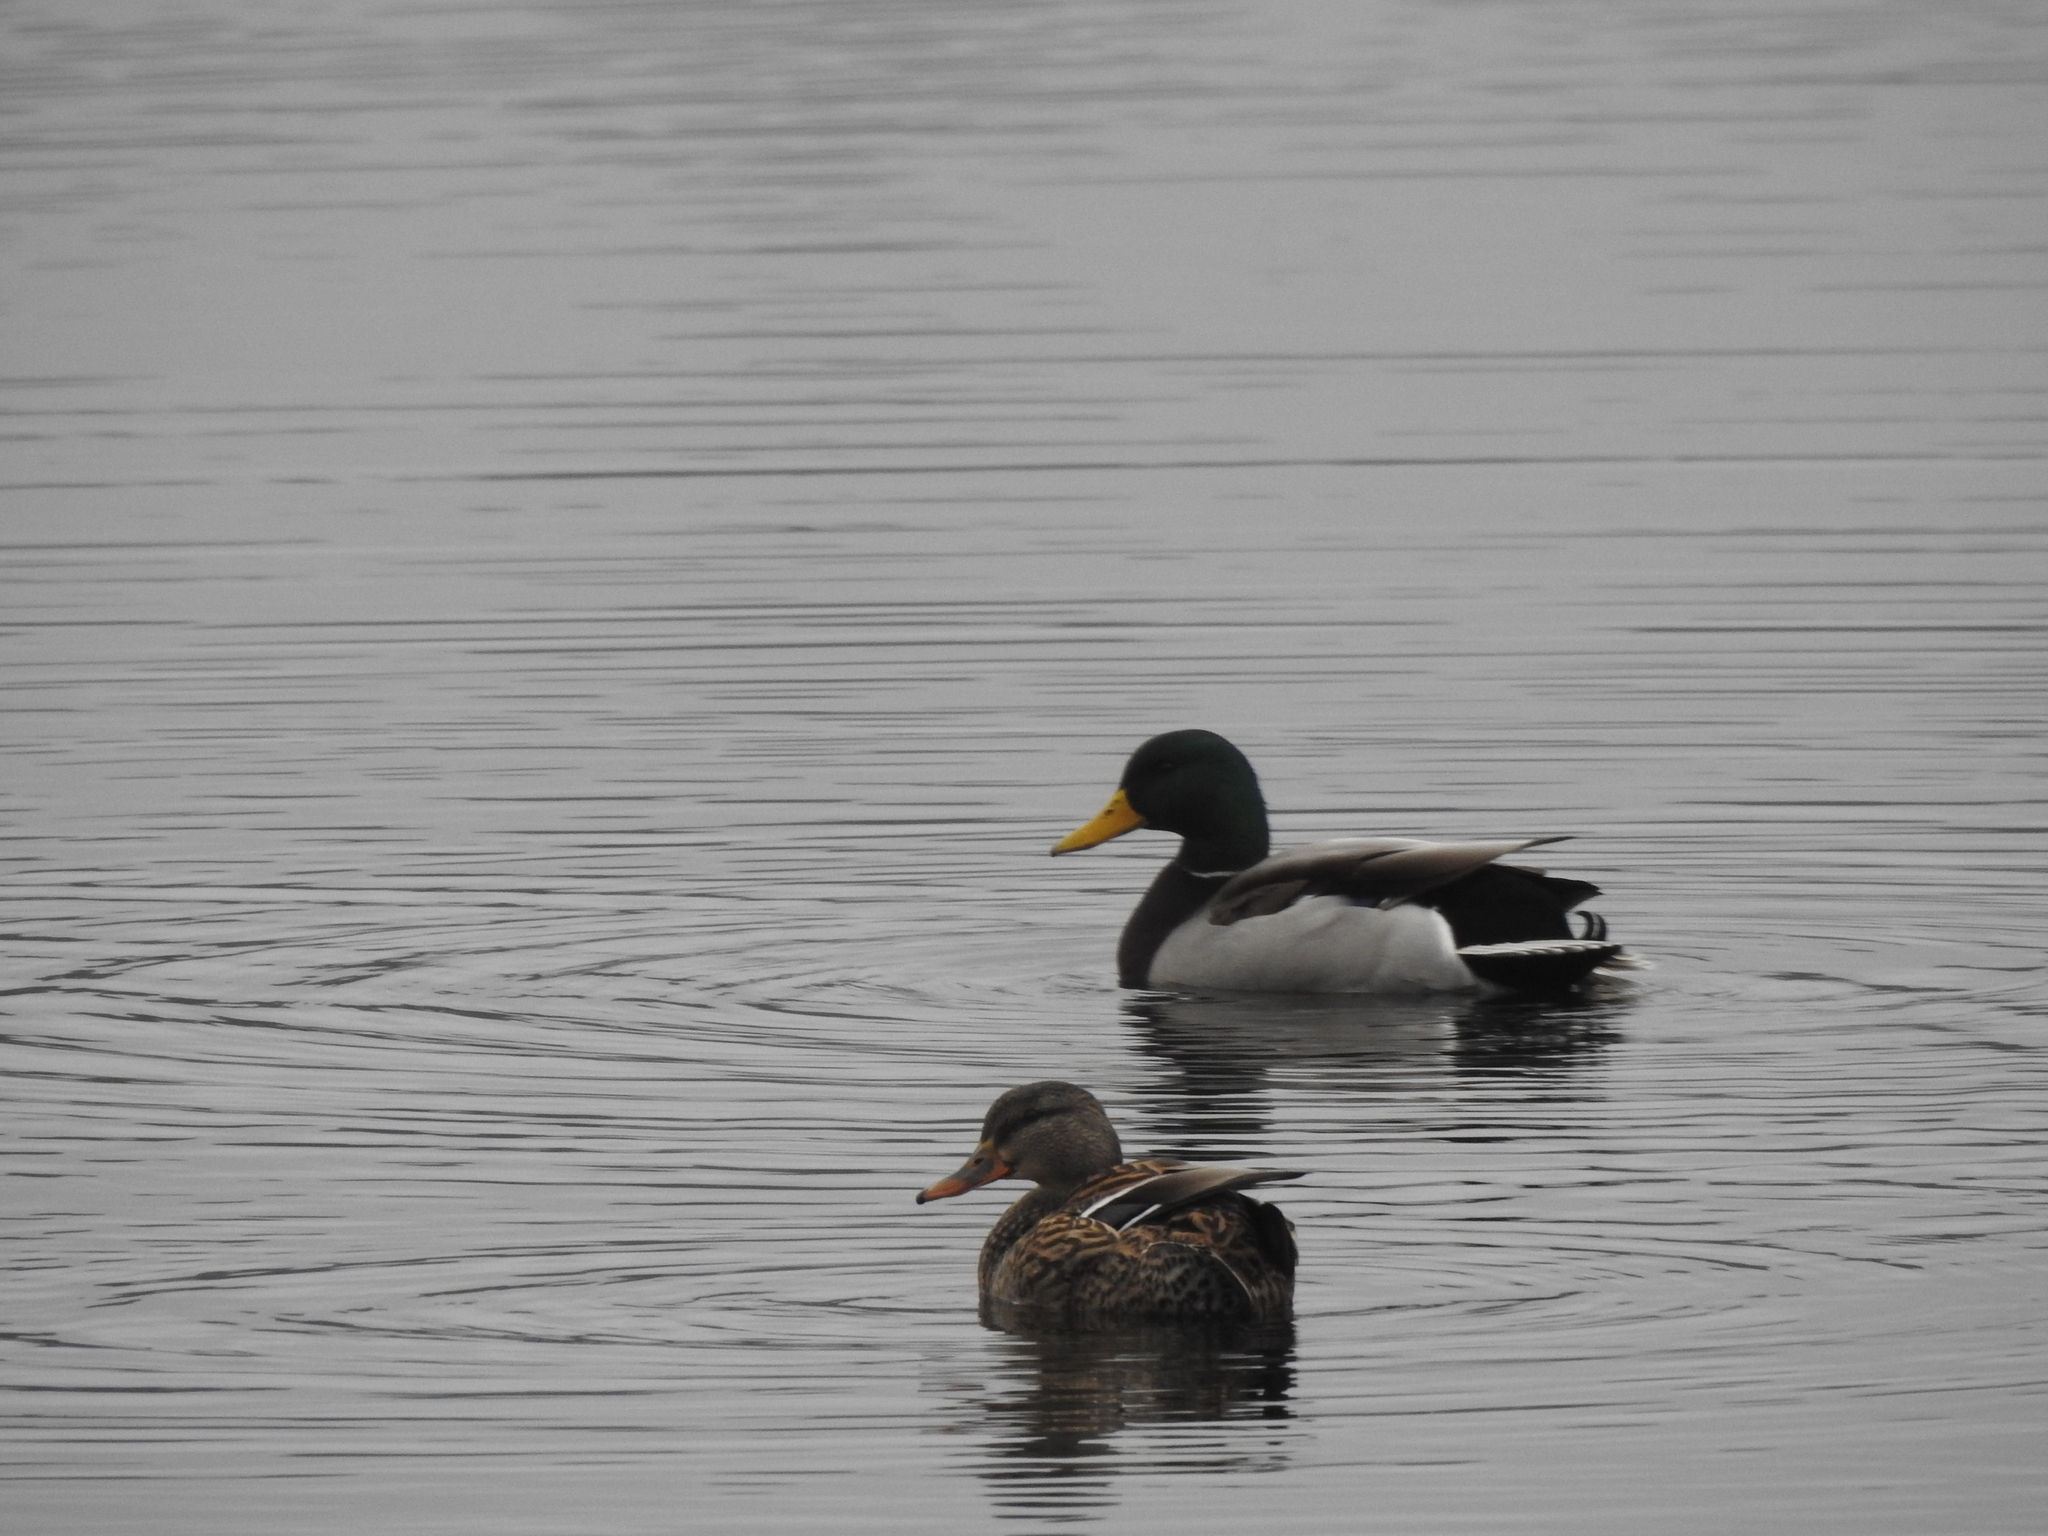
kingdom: Animalia
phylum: Chordata
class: Aves
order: Anseriformes
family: Anatidae
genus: Anas
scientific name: Anas platyrhynchos
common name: Mallard
